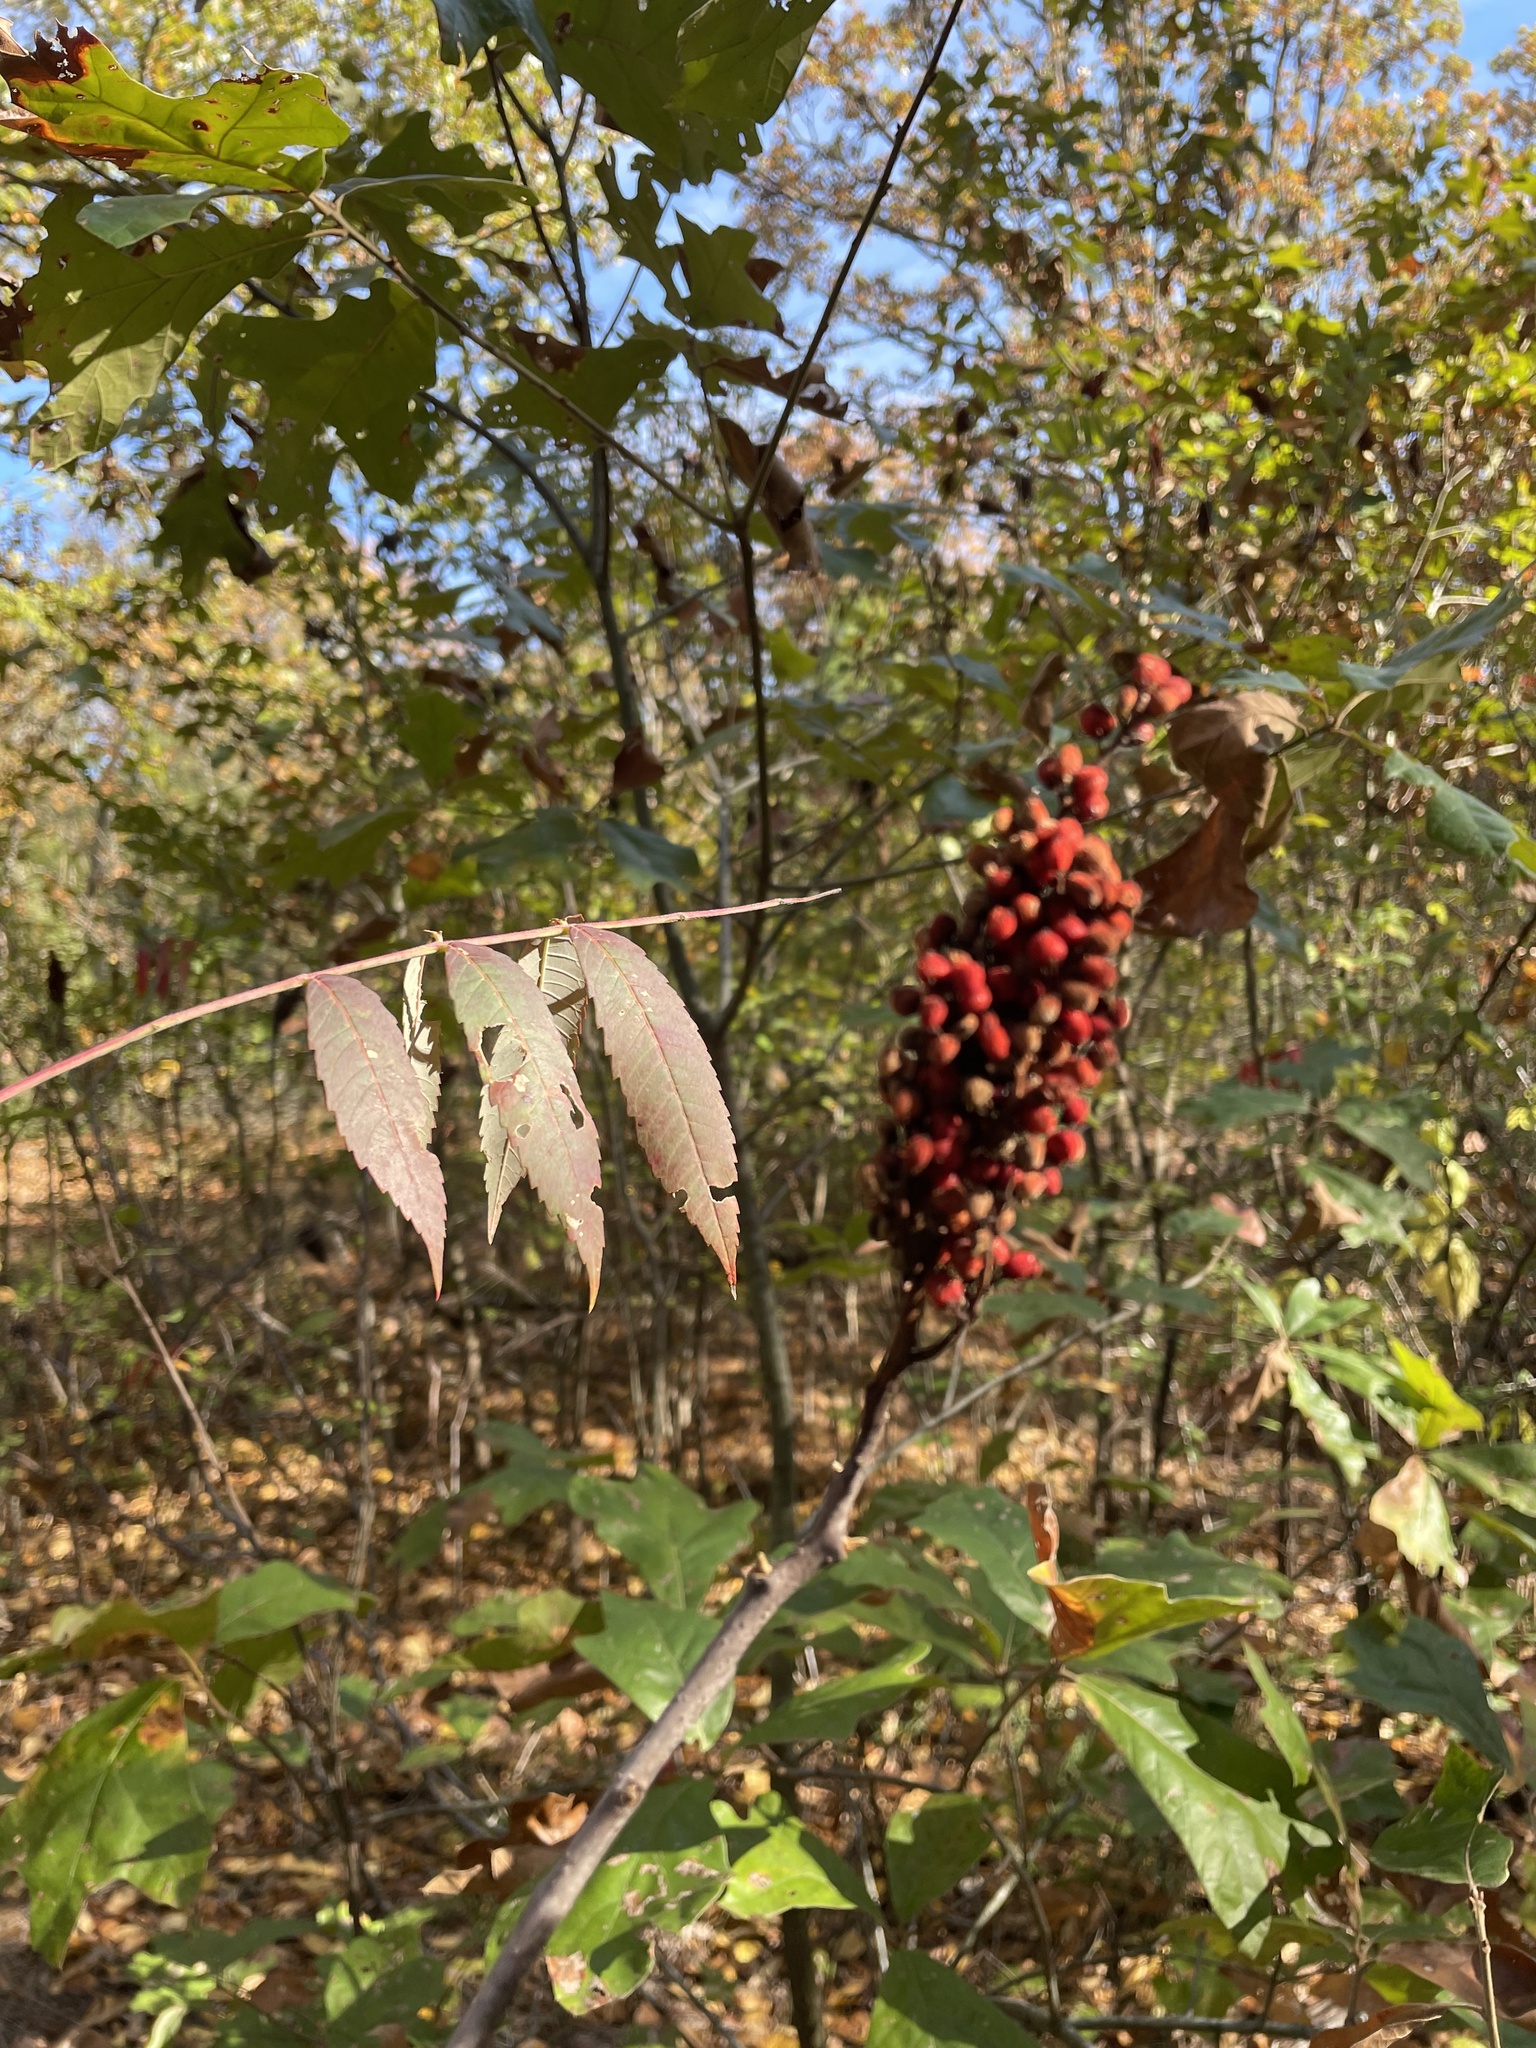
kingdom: Plantae
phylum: Tracheophyta
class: Magnoliopsida
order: Sapindales
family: Anacardiaceae
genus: Rhus
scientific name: Rhus glabra
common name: Scarlet sumac
